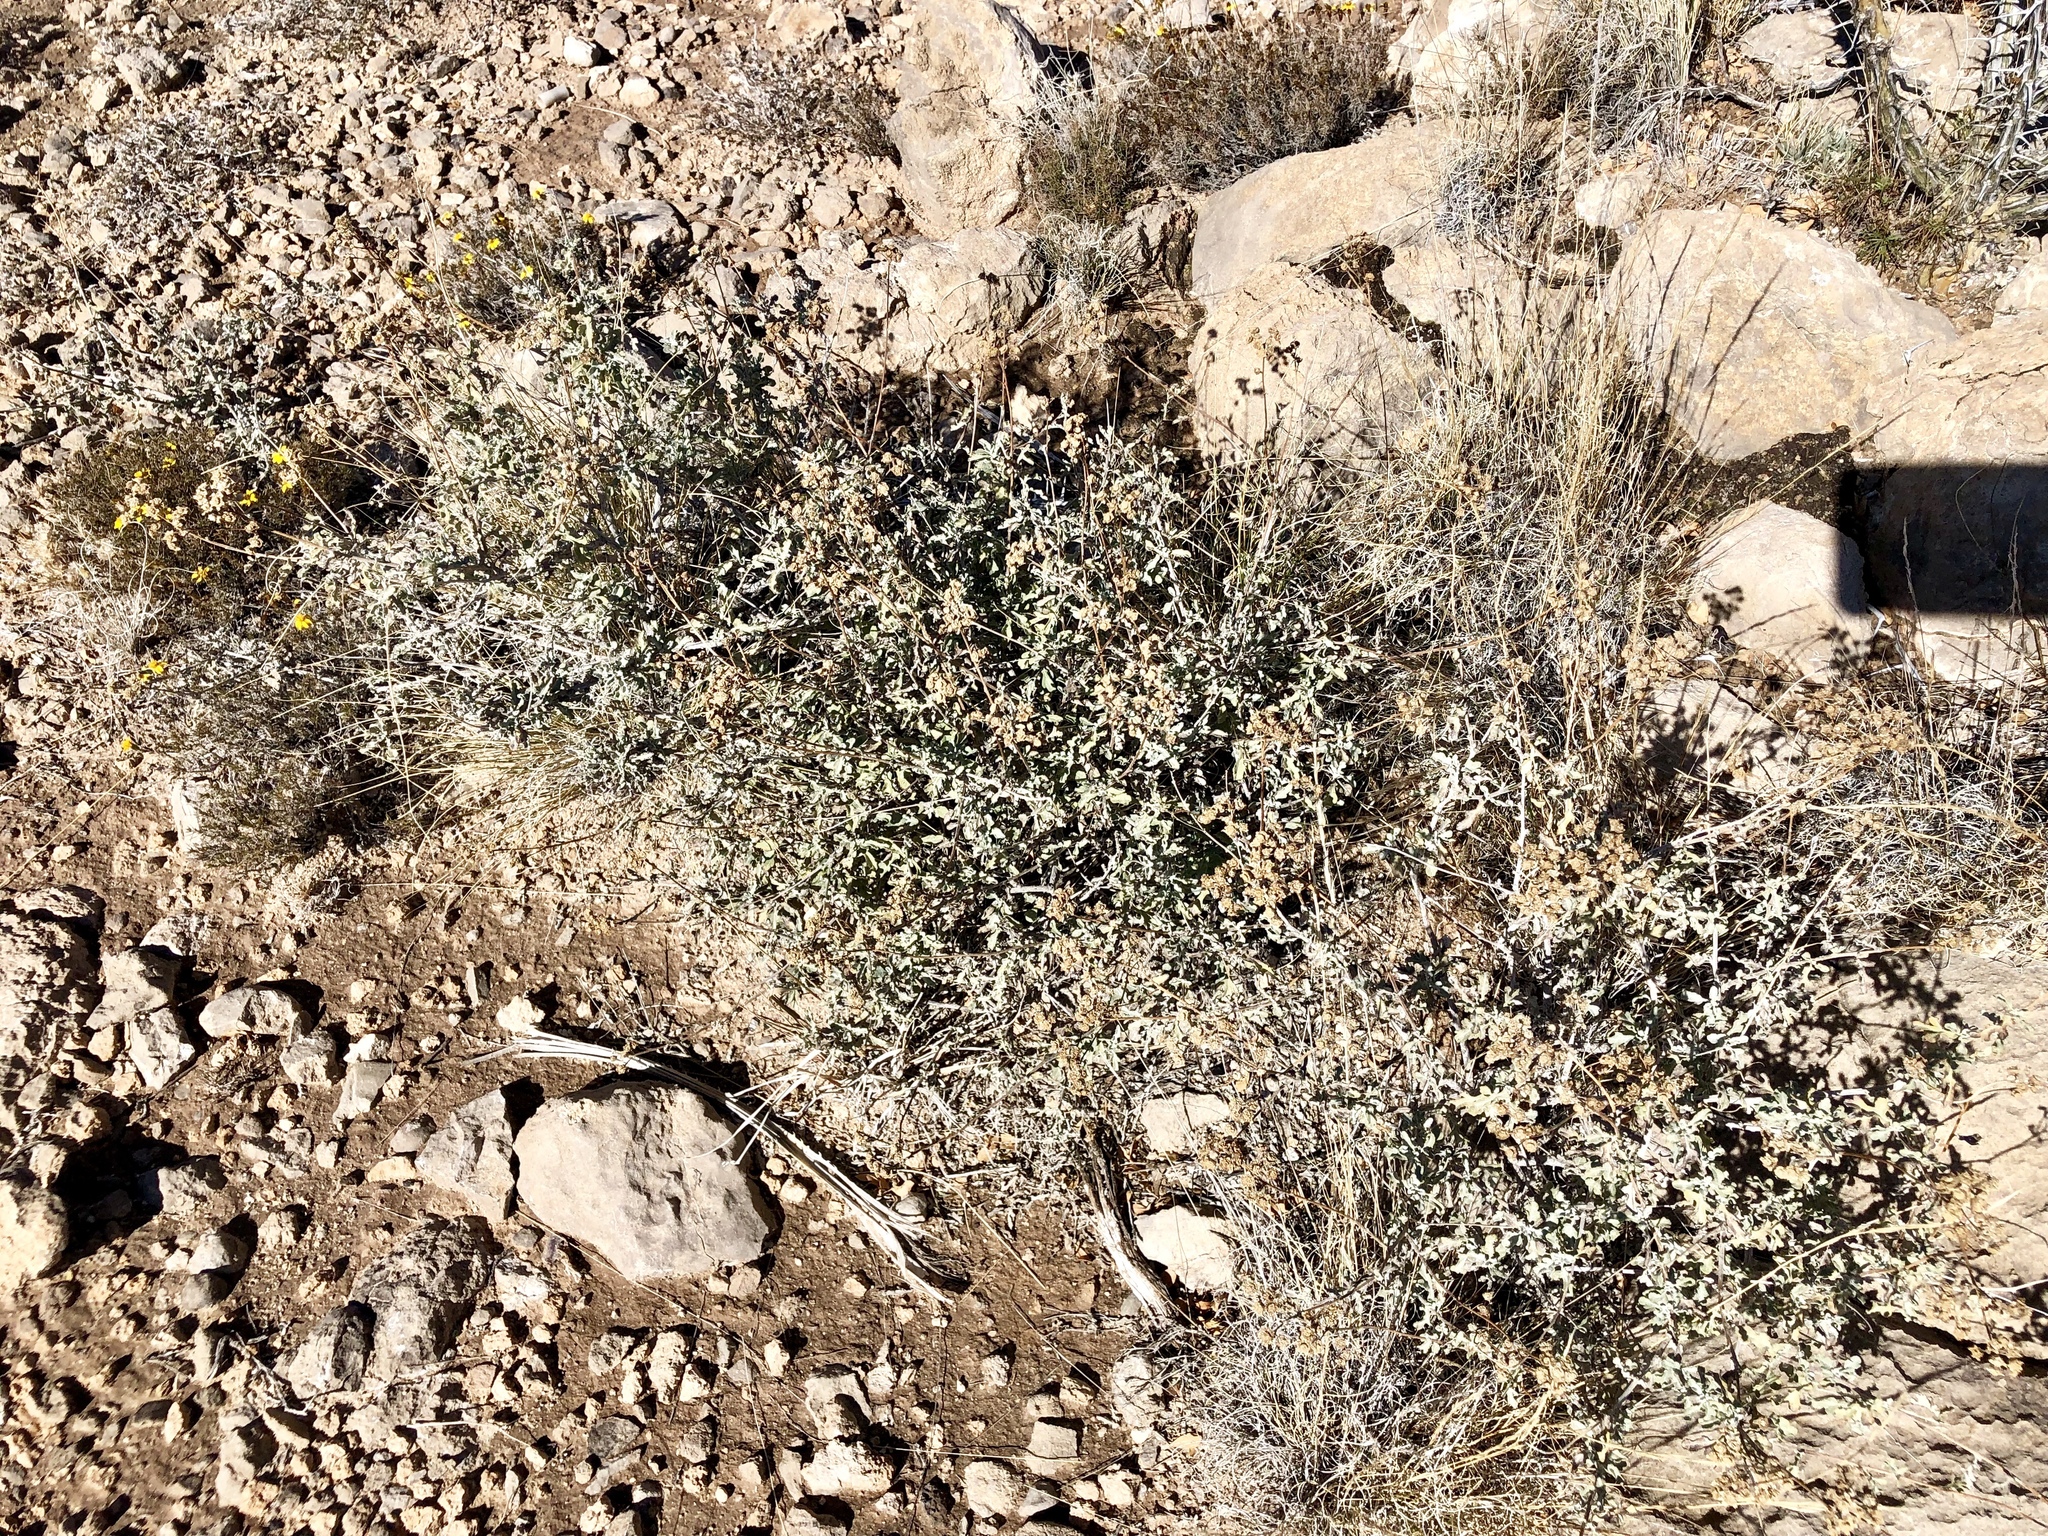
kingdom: Plantae
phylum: Tracheophyta
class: Magnoliopsida
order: Asterales
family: Asteraceae
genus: Parthenium
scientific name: Parthenium incanum
